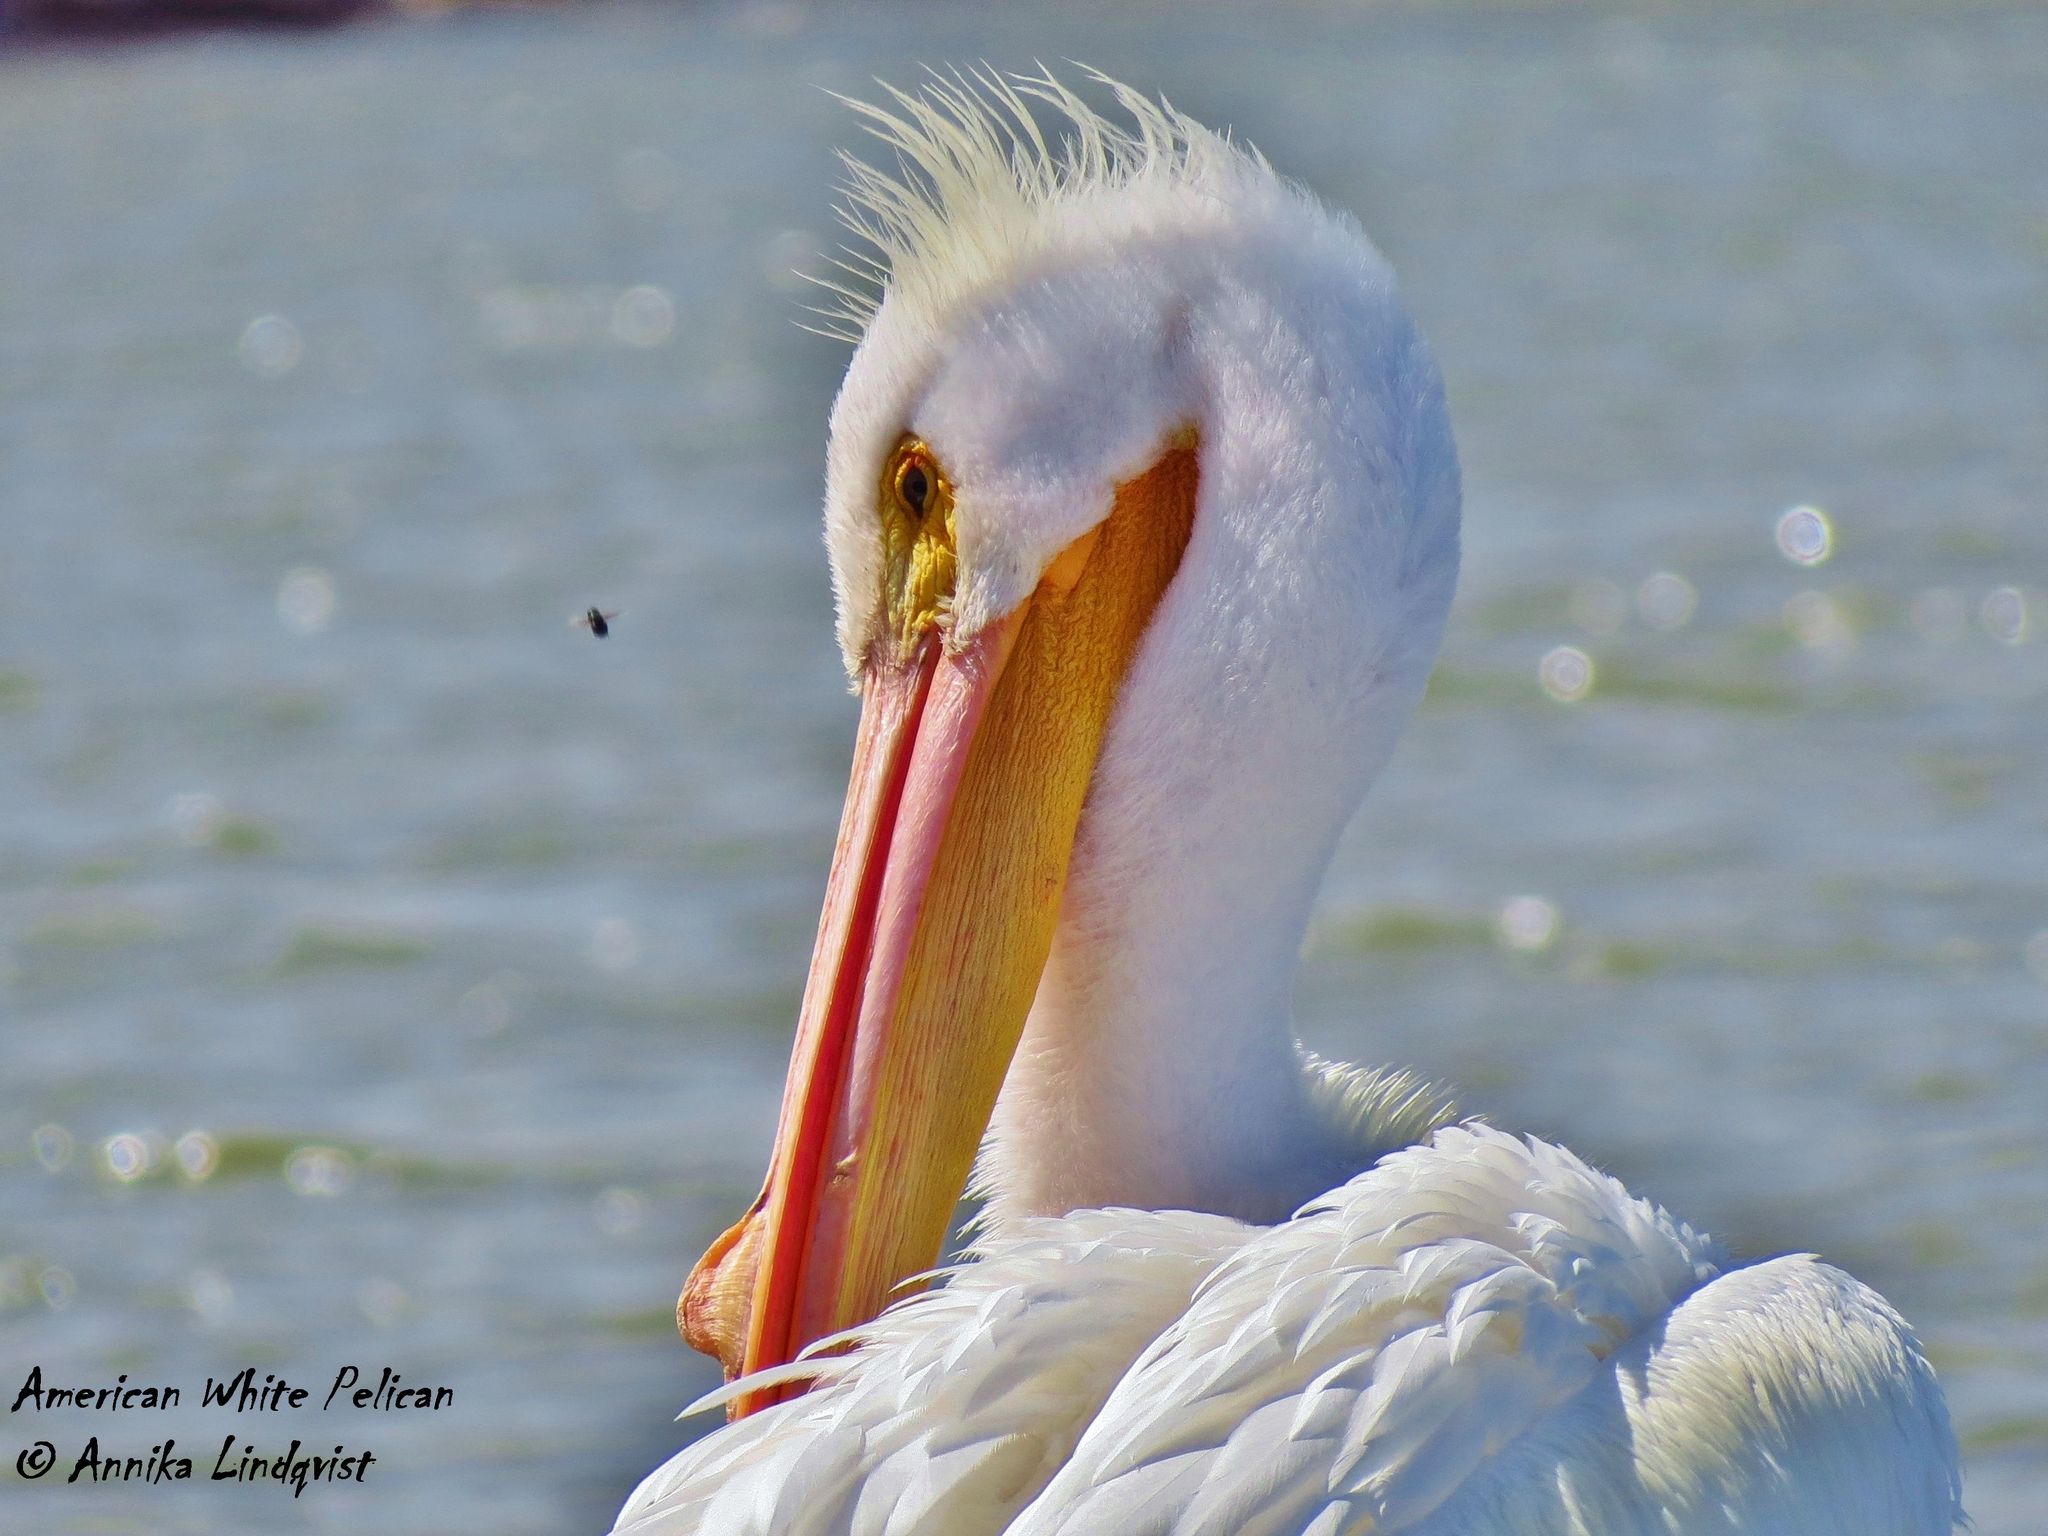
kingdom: Animalia
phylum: Chordata
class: Aves
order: Pelecaniformes
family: Pelecanidae
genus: Pelecanus
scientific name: Pelecanus erythrorhynchos
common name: American white pelican
